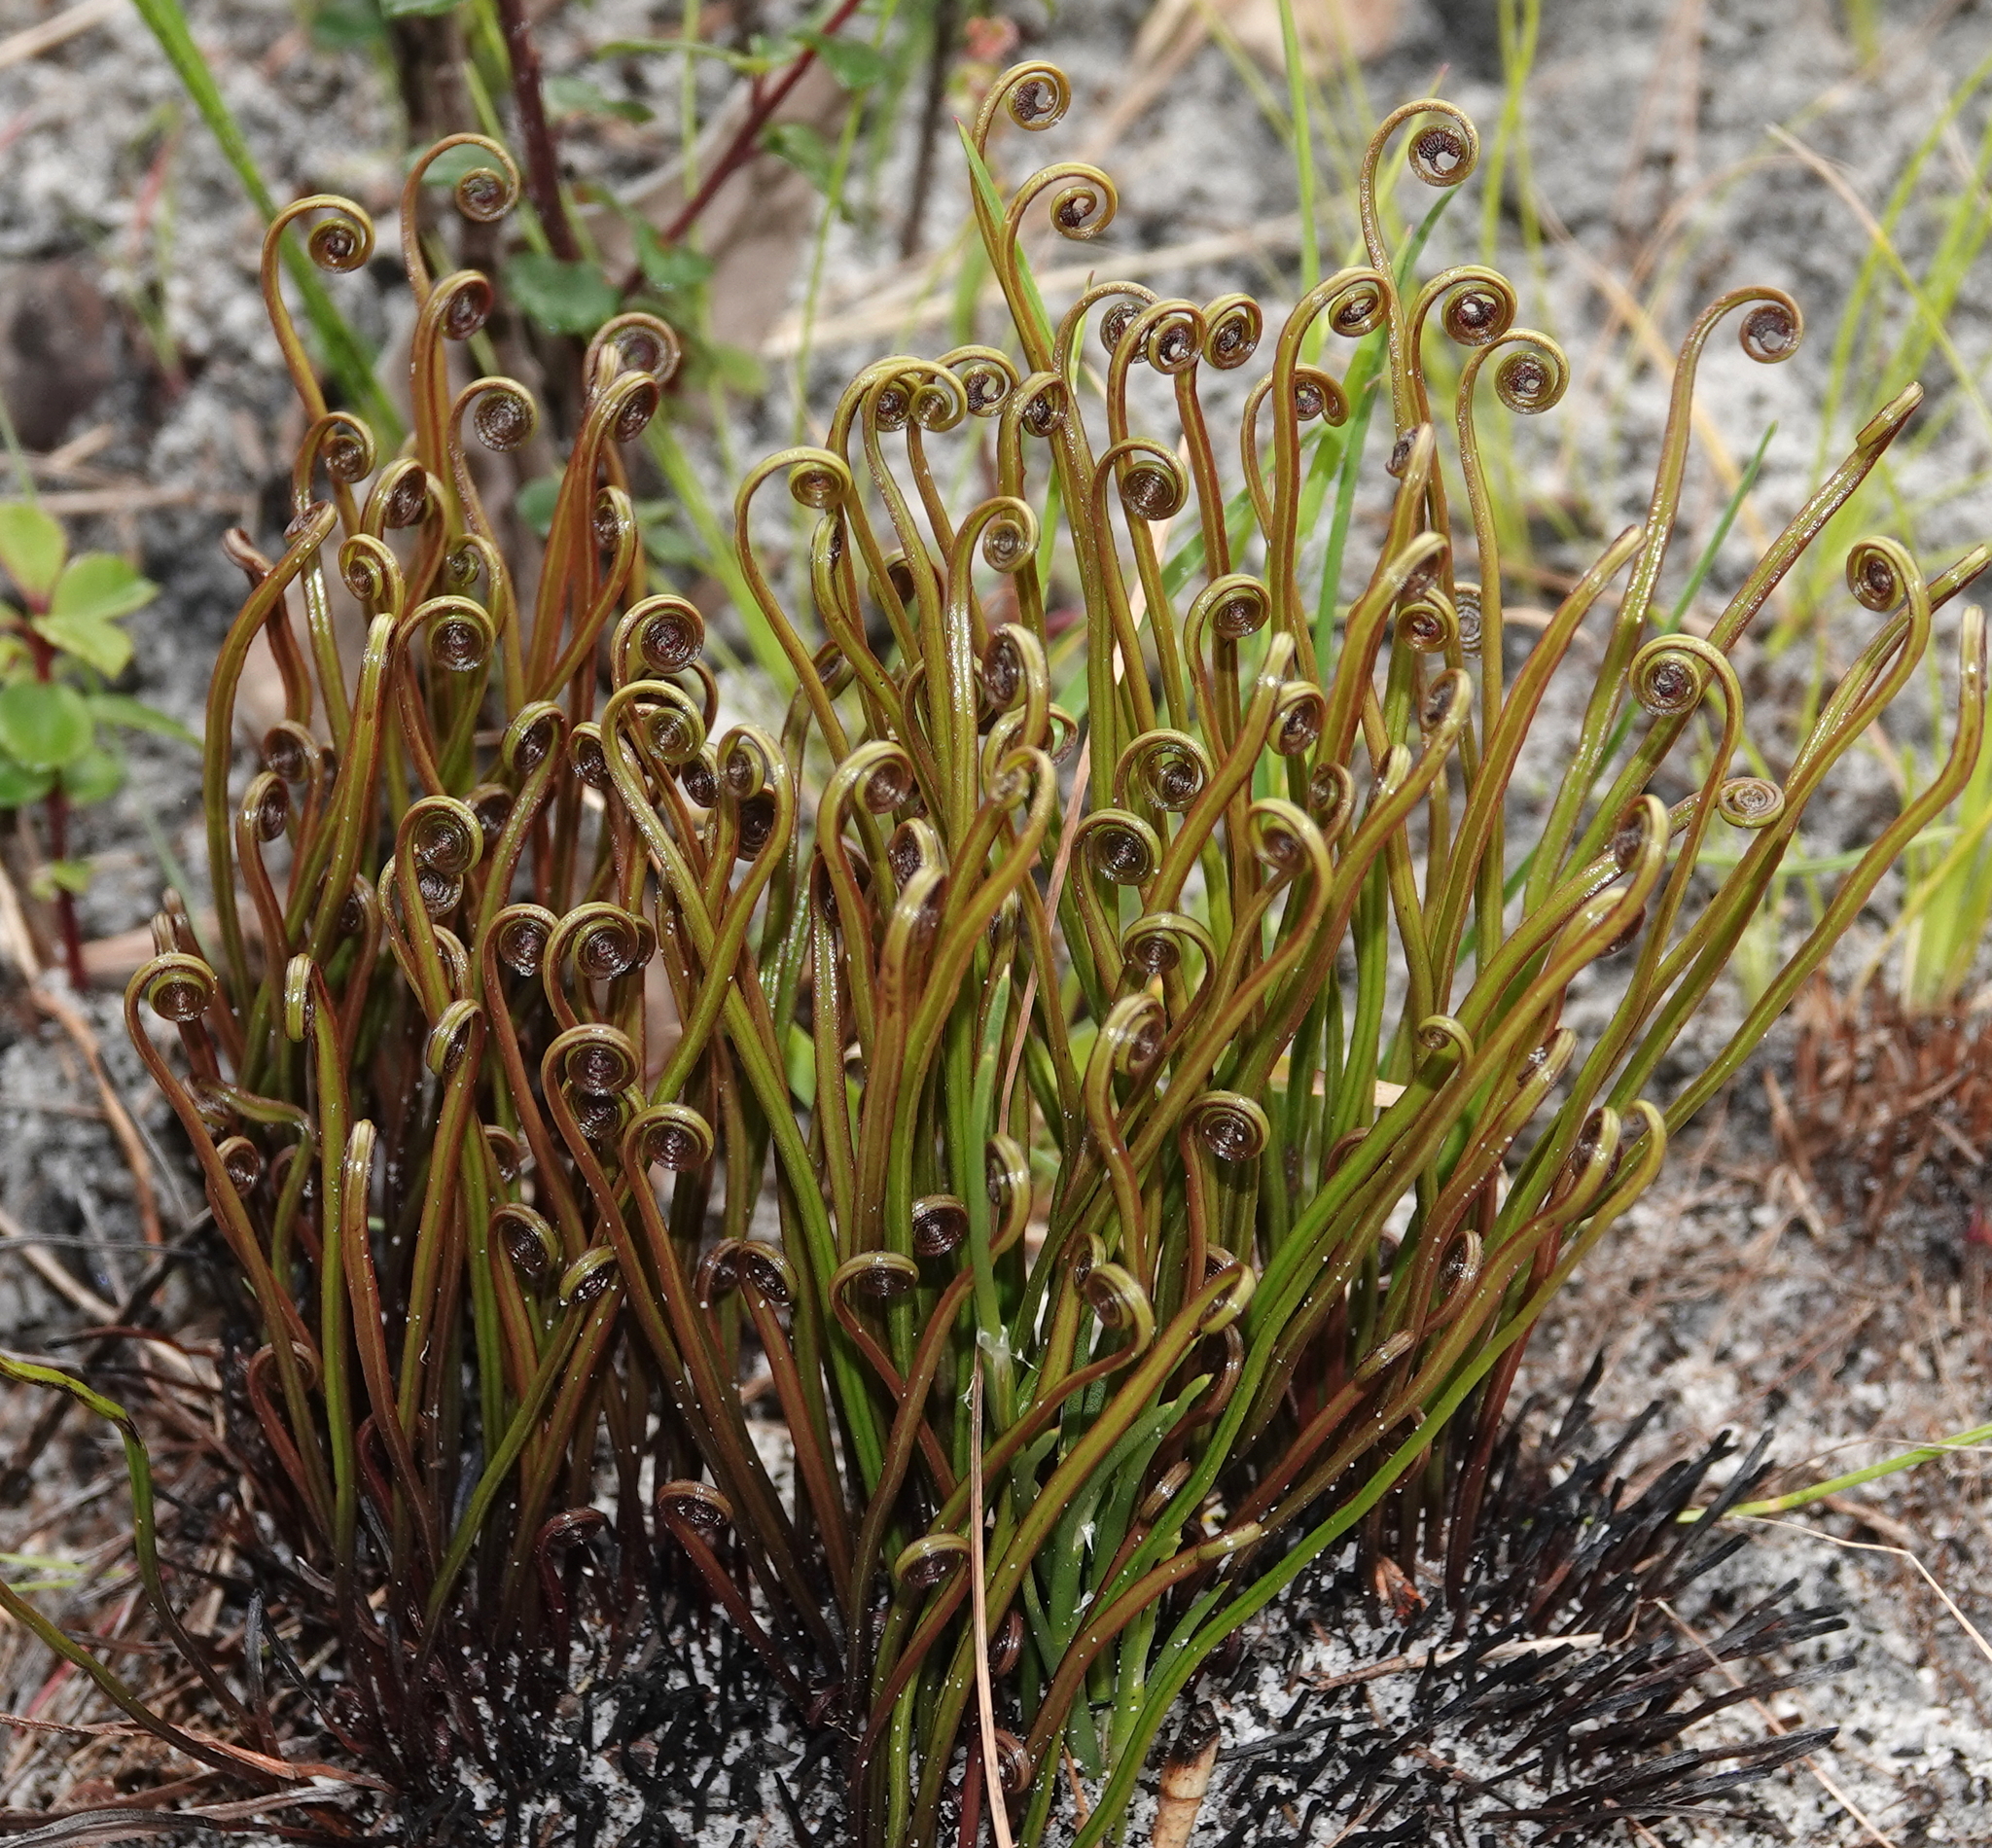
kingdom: Plantae
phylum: Tracheophyta
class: Polypodiopsida
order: Schizaeales
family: Schizaeaceae
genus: Schizaea
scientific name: Schizaea pectinata
